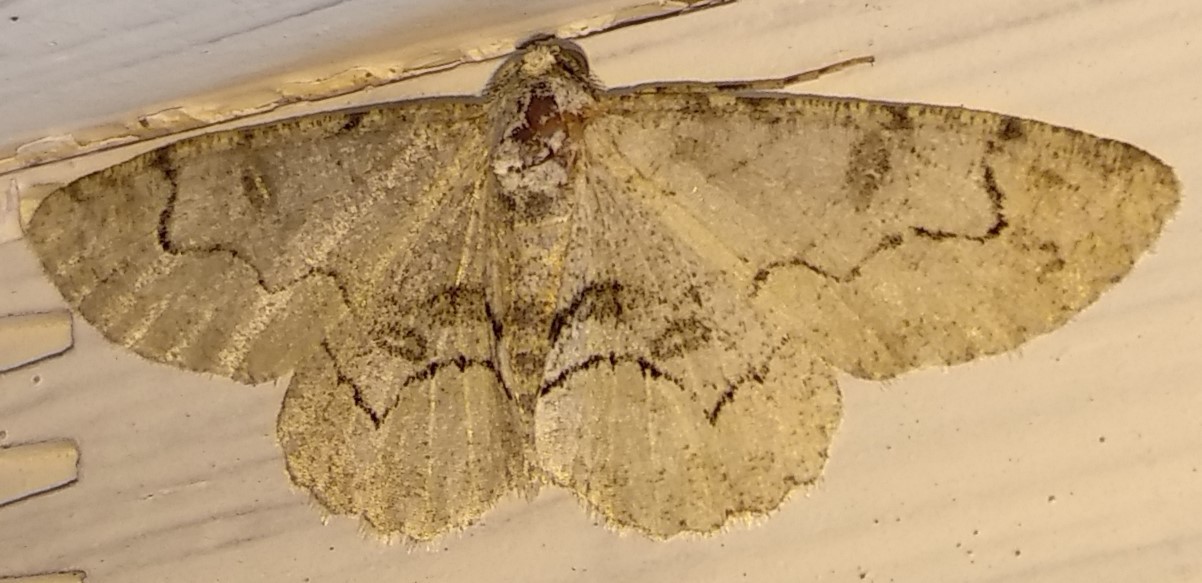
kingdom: Animalia
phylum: Arthropoda
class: Insecta
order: Lepidoptera
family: Geometridae
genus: Iridopsis
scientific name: Iridopsis larvaria
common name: Bent-line gray
